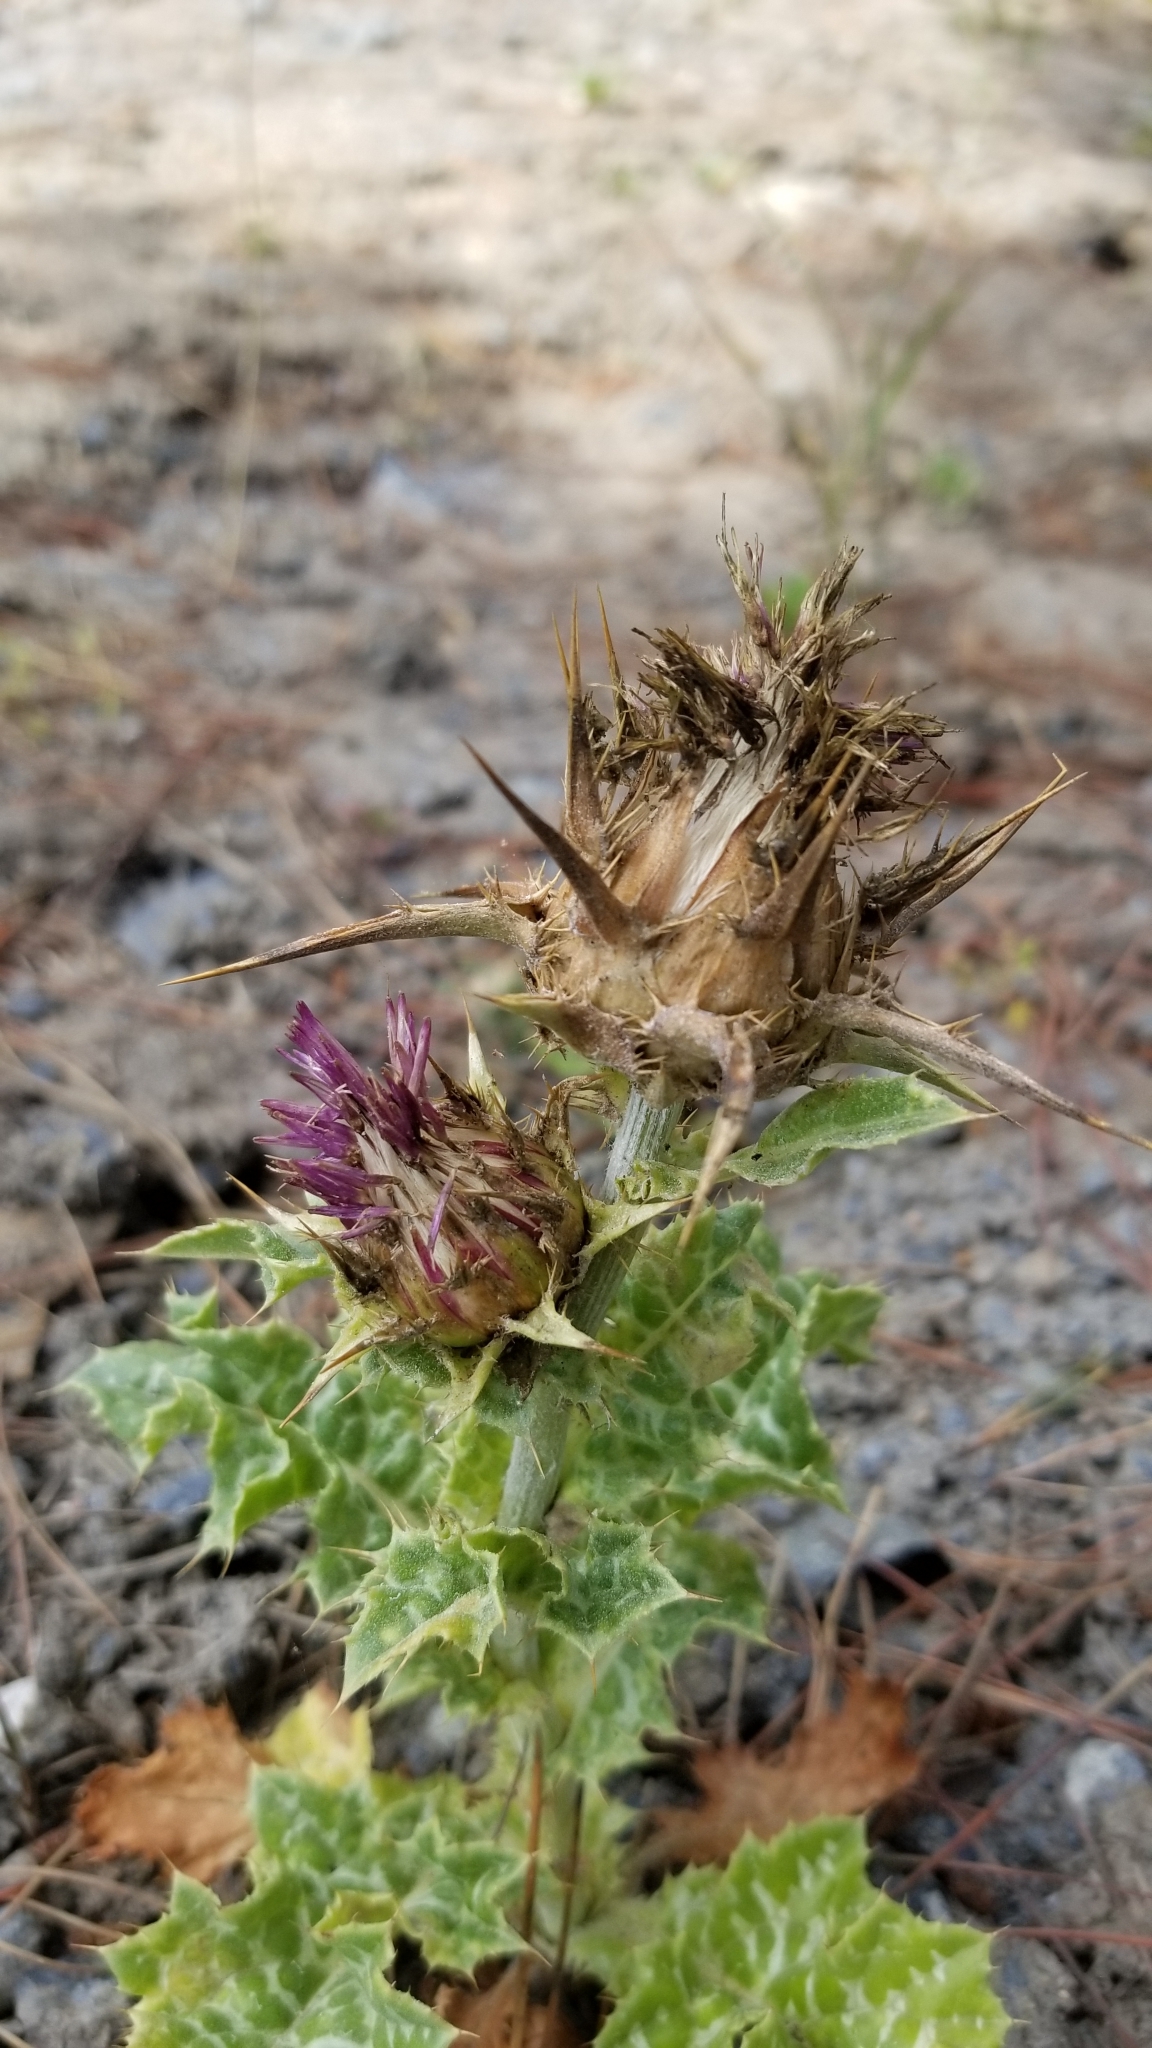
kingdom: Plantae
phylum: Tracheophyta
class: Magnoliopsida
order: Asterales
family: Asteraceae
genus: Silybum
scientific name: Silybum marianum
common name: Milk thistle
